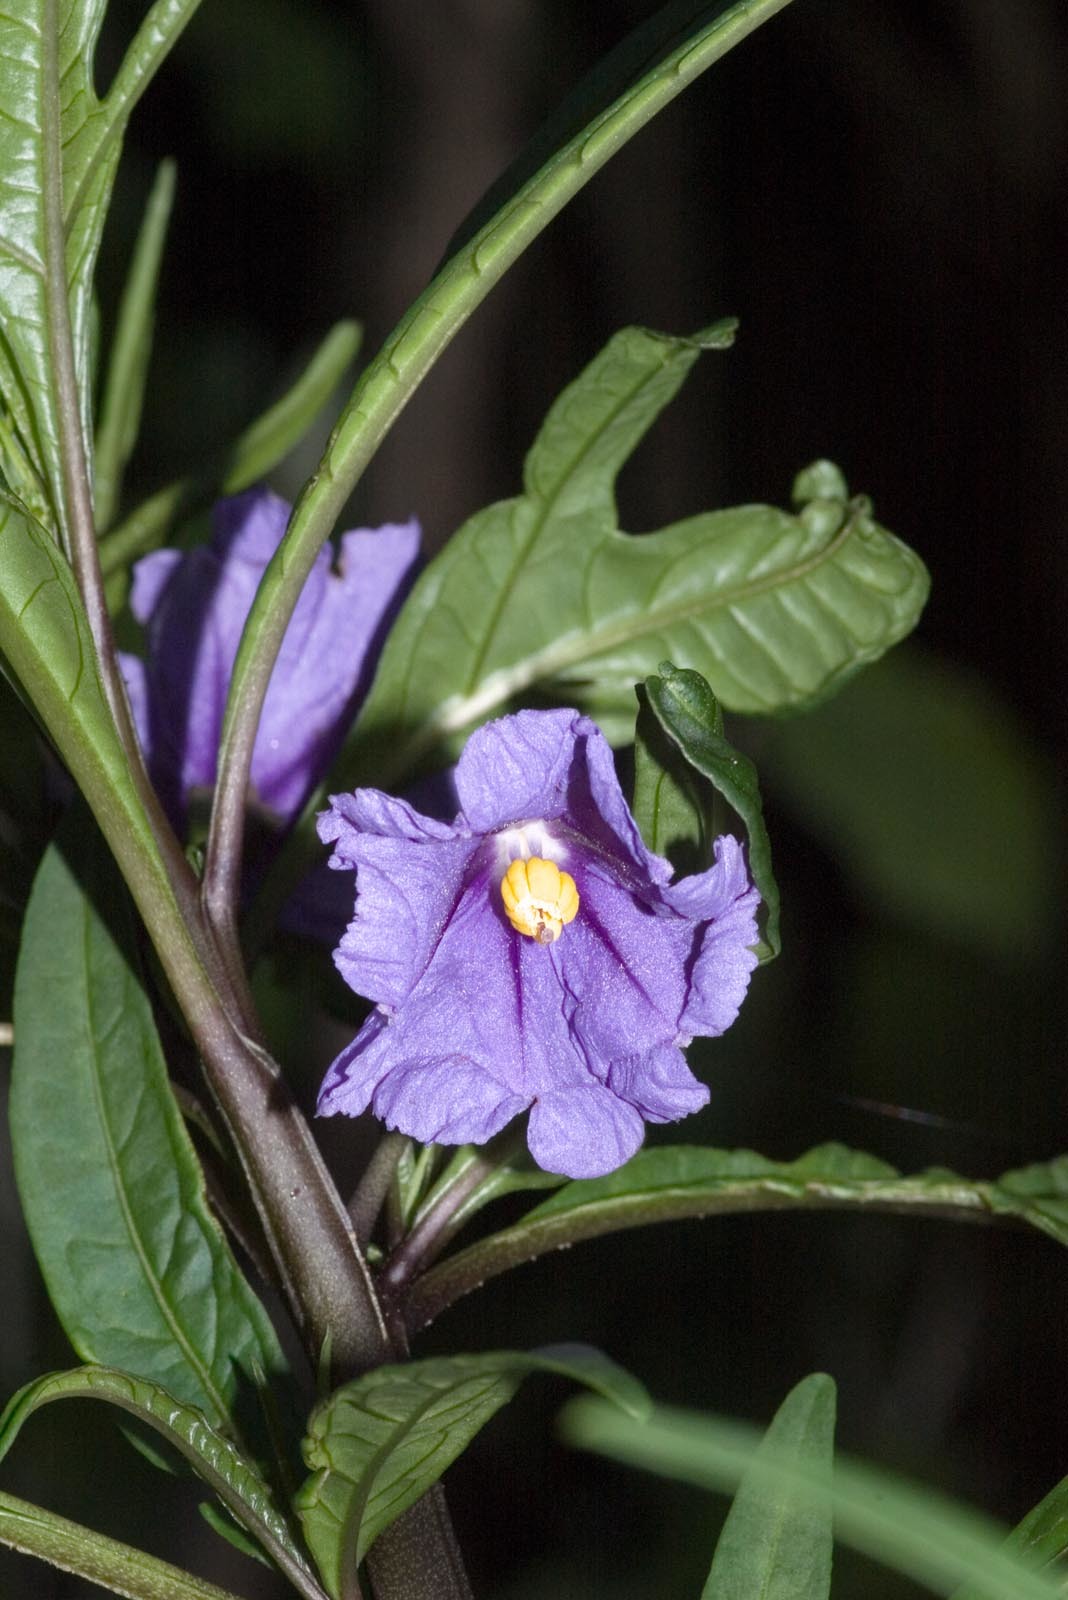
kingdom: Plantae
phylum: Tracheophyta
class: Magnoliopsida
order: Solanales
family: Solanaceae
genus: Solanum
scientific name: Solanum laciniatum
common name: Kangaroo-apple
